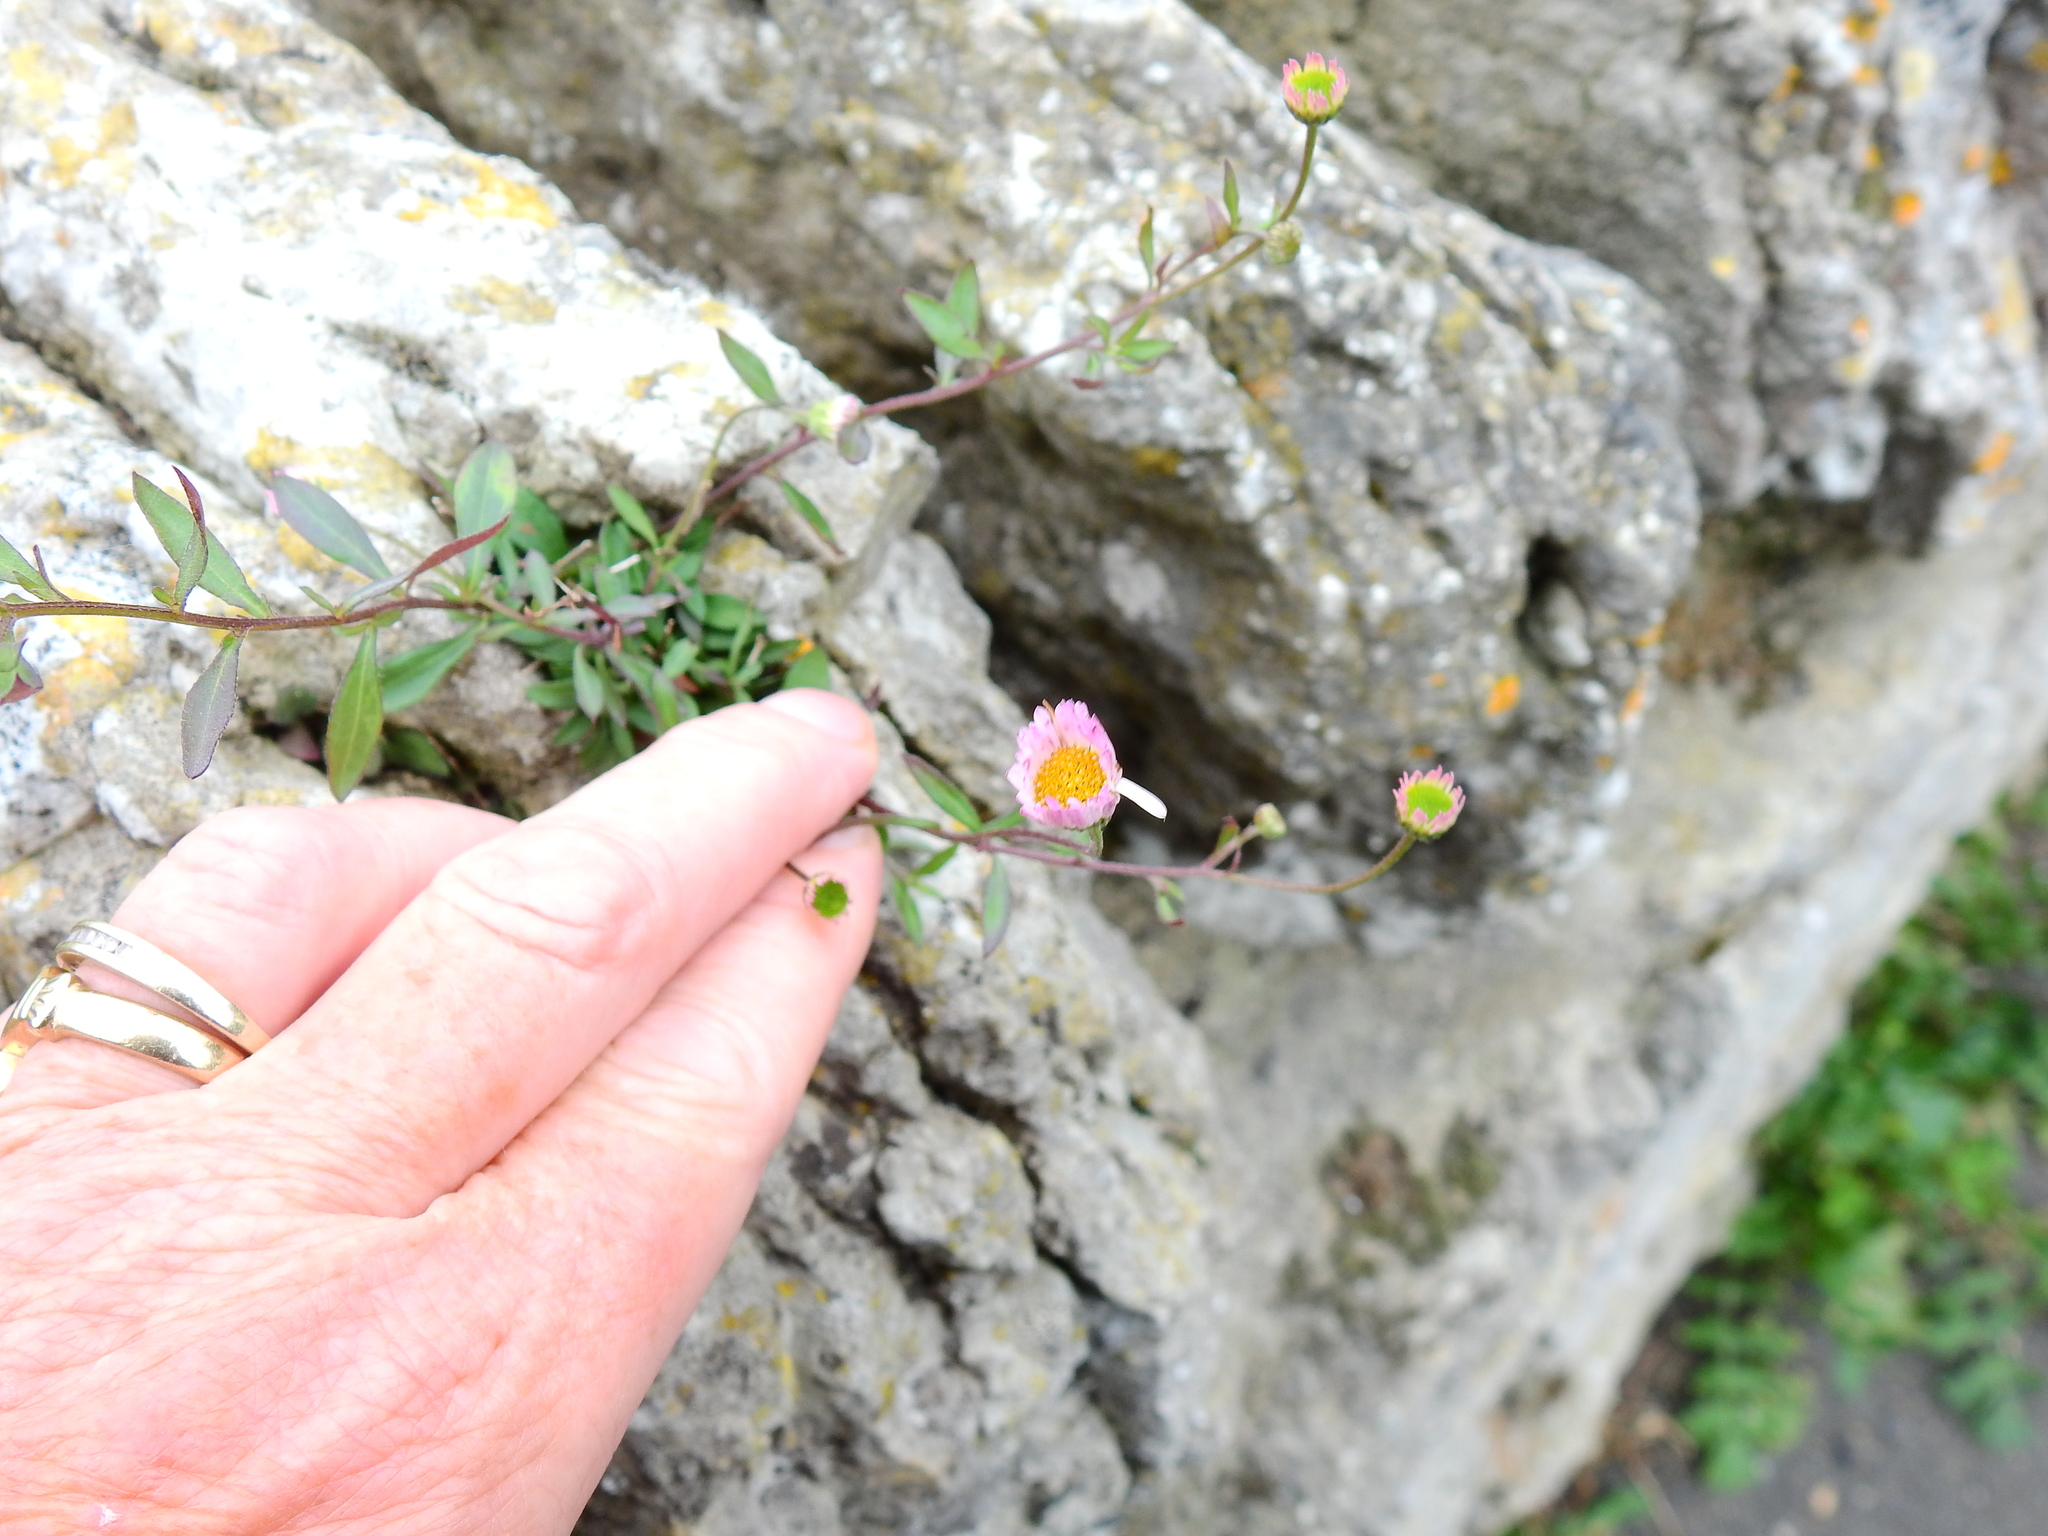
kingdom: Plantae
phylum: Tracheophyta
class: Magnoliopsida
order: Asterales
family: Asteraceae
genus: Erigeron
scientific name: Erigeron karvinskianus
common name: Mexican fleabane
